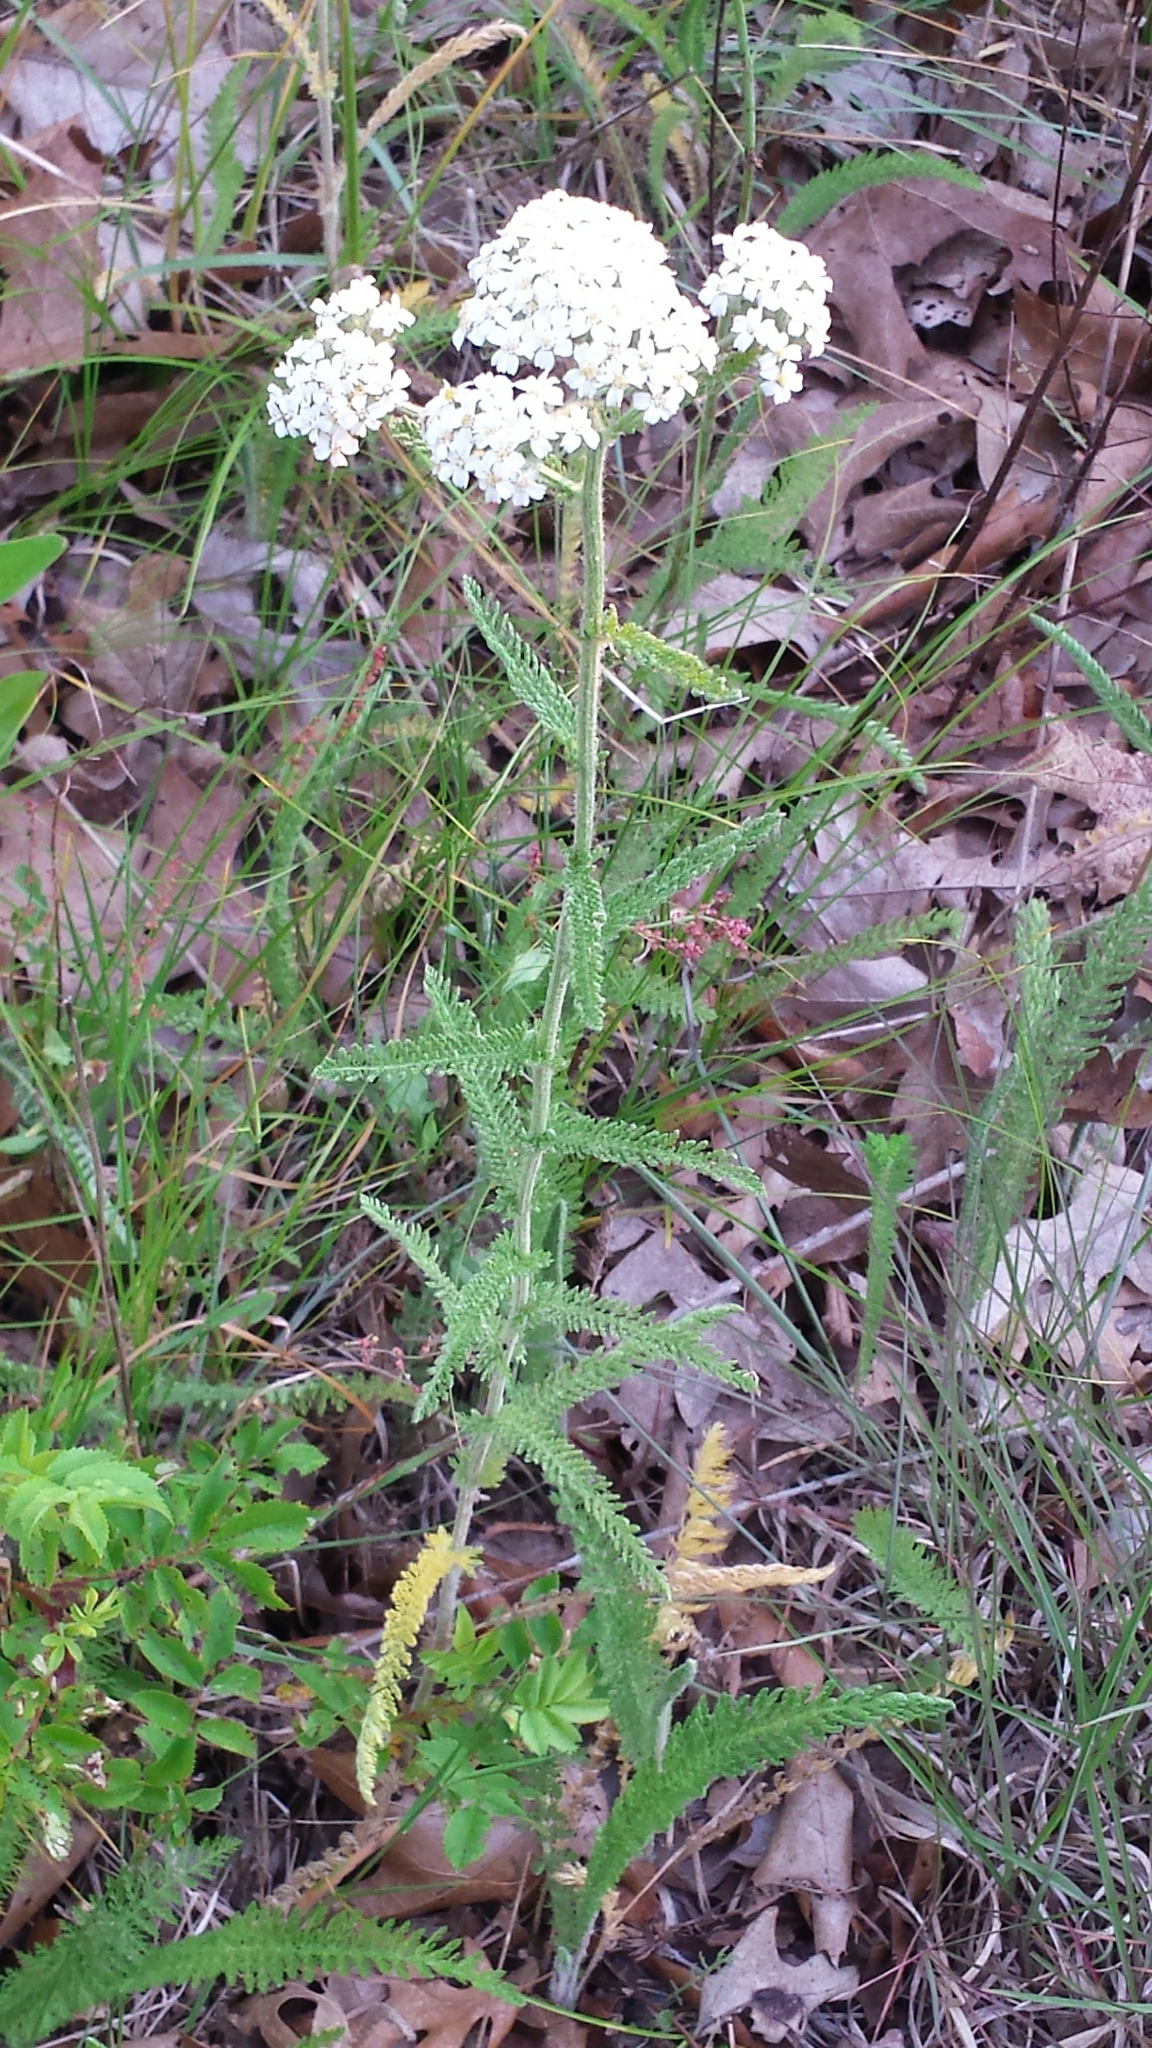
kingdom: Plantae
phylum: Tracheophyta
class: Magnoliopsida
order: Asterales
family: Asteraceae
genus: Achillea
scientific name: Achillea millefolium
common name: Yarrow
